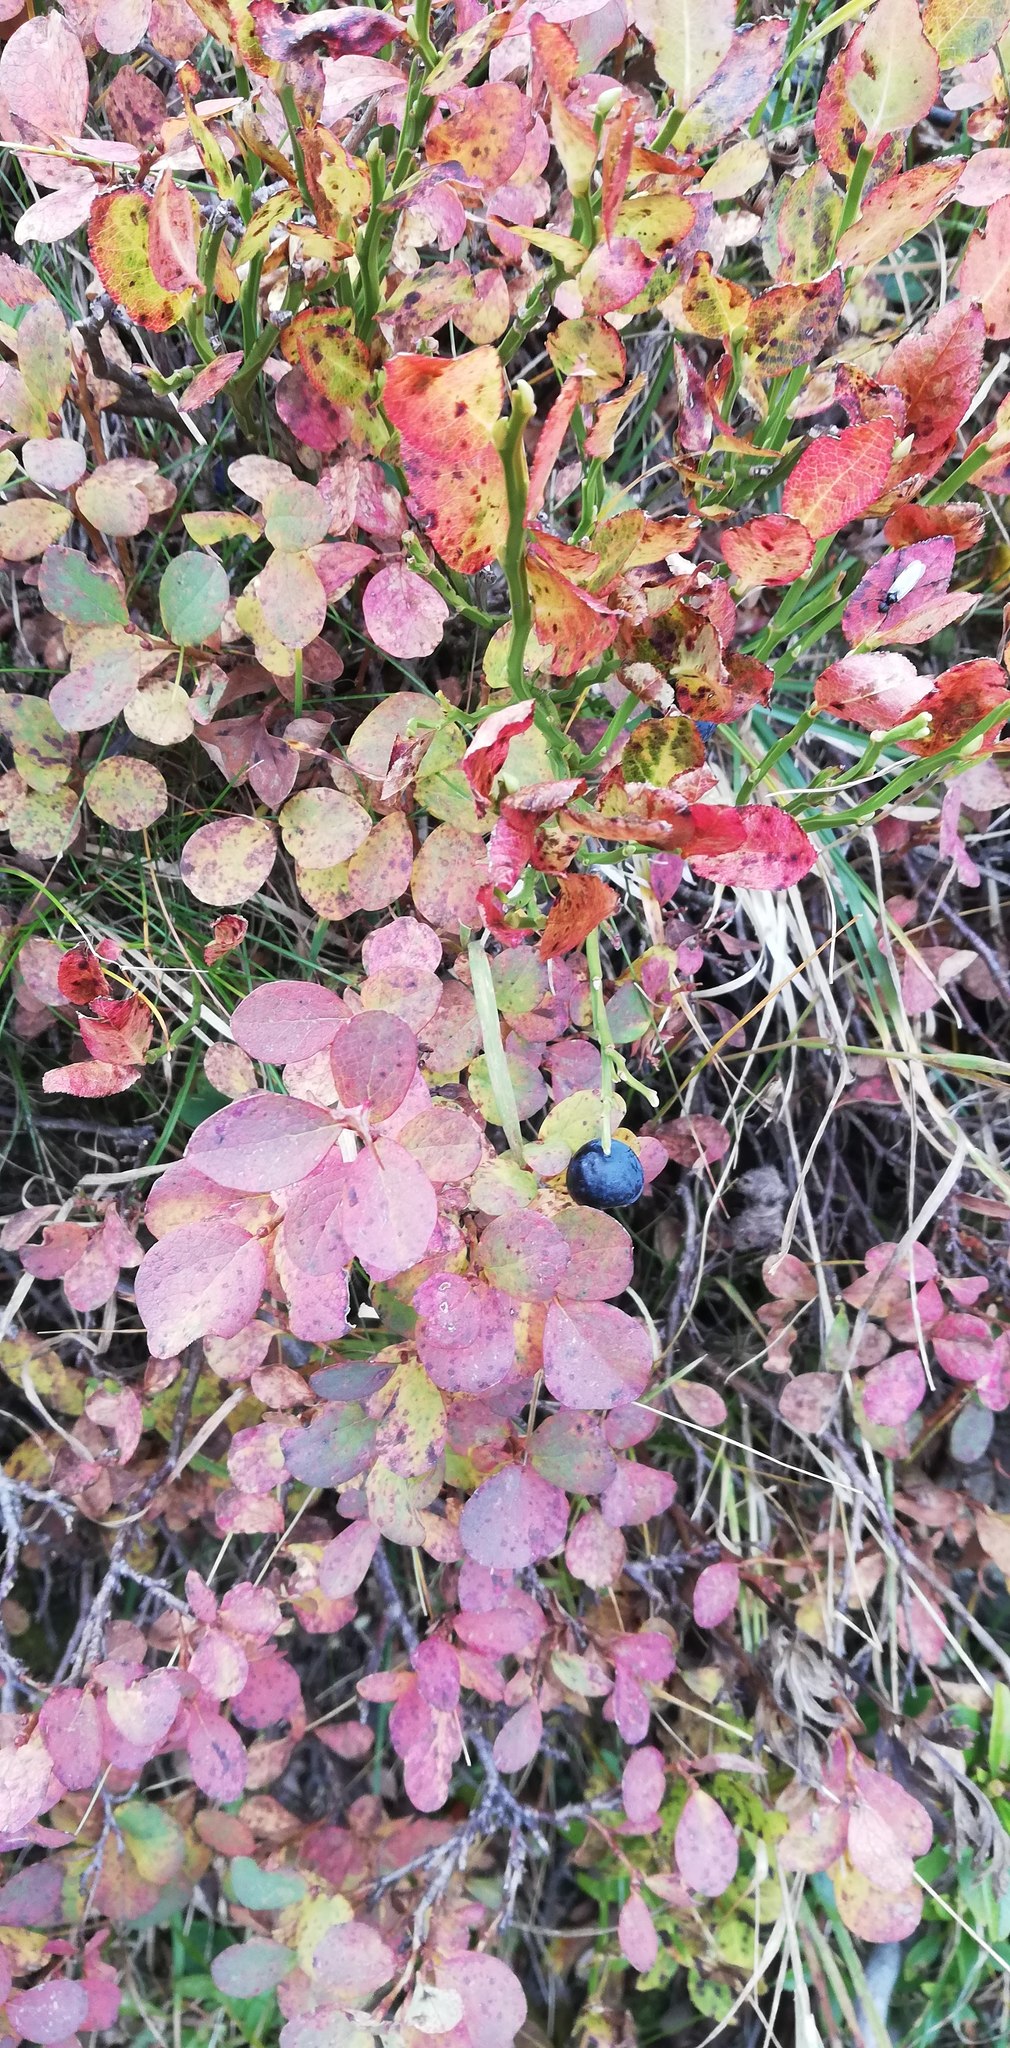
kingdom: Plantae
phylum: Tracheophyta
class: Magnoliopsida
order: Ericales
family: Ericaceae
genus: Vaccinium
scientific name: Vaccinium uliginosum
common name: Bog bilberry
